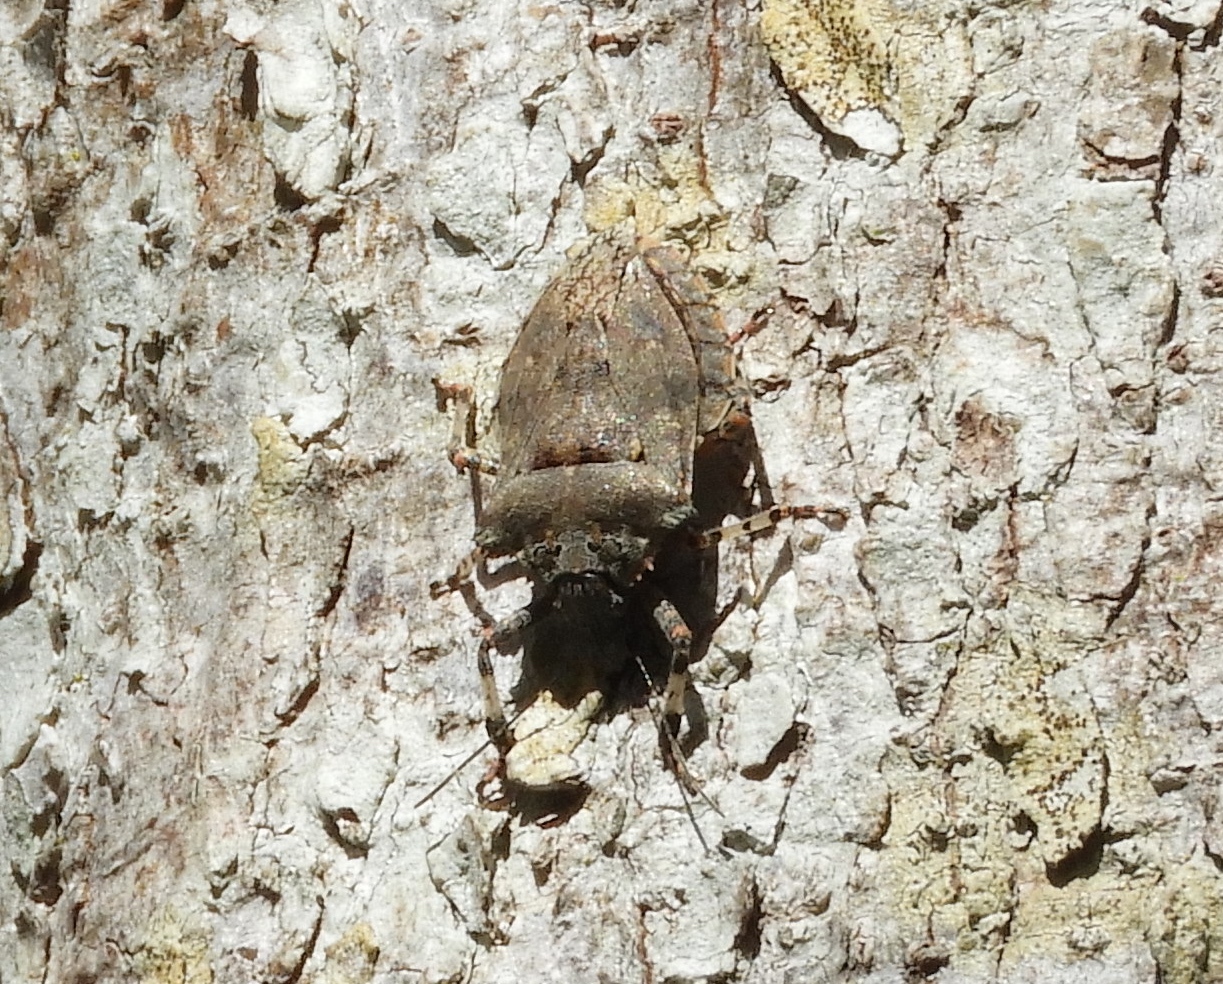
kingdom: Animalia
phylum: Arthropoda
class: Insecta
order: Hemiptera
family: Pentatomidae
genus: Brochymena
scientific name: Brochymena
